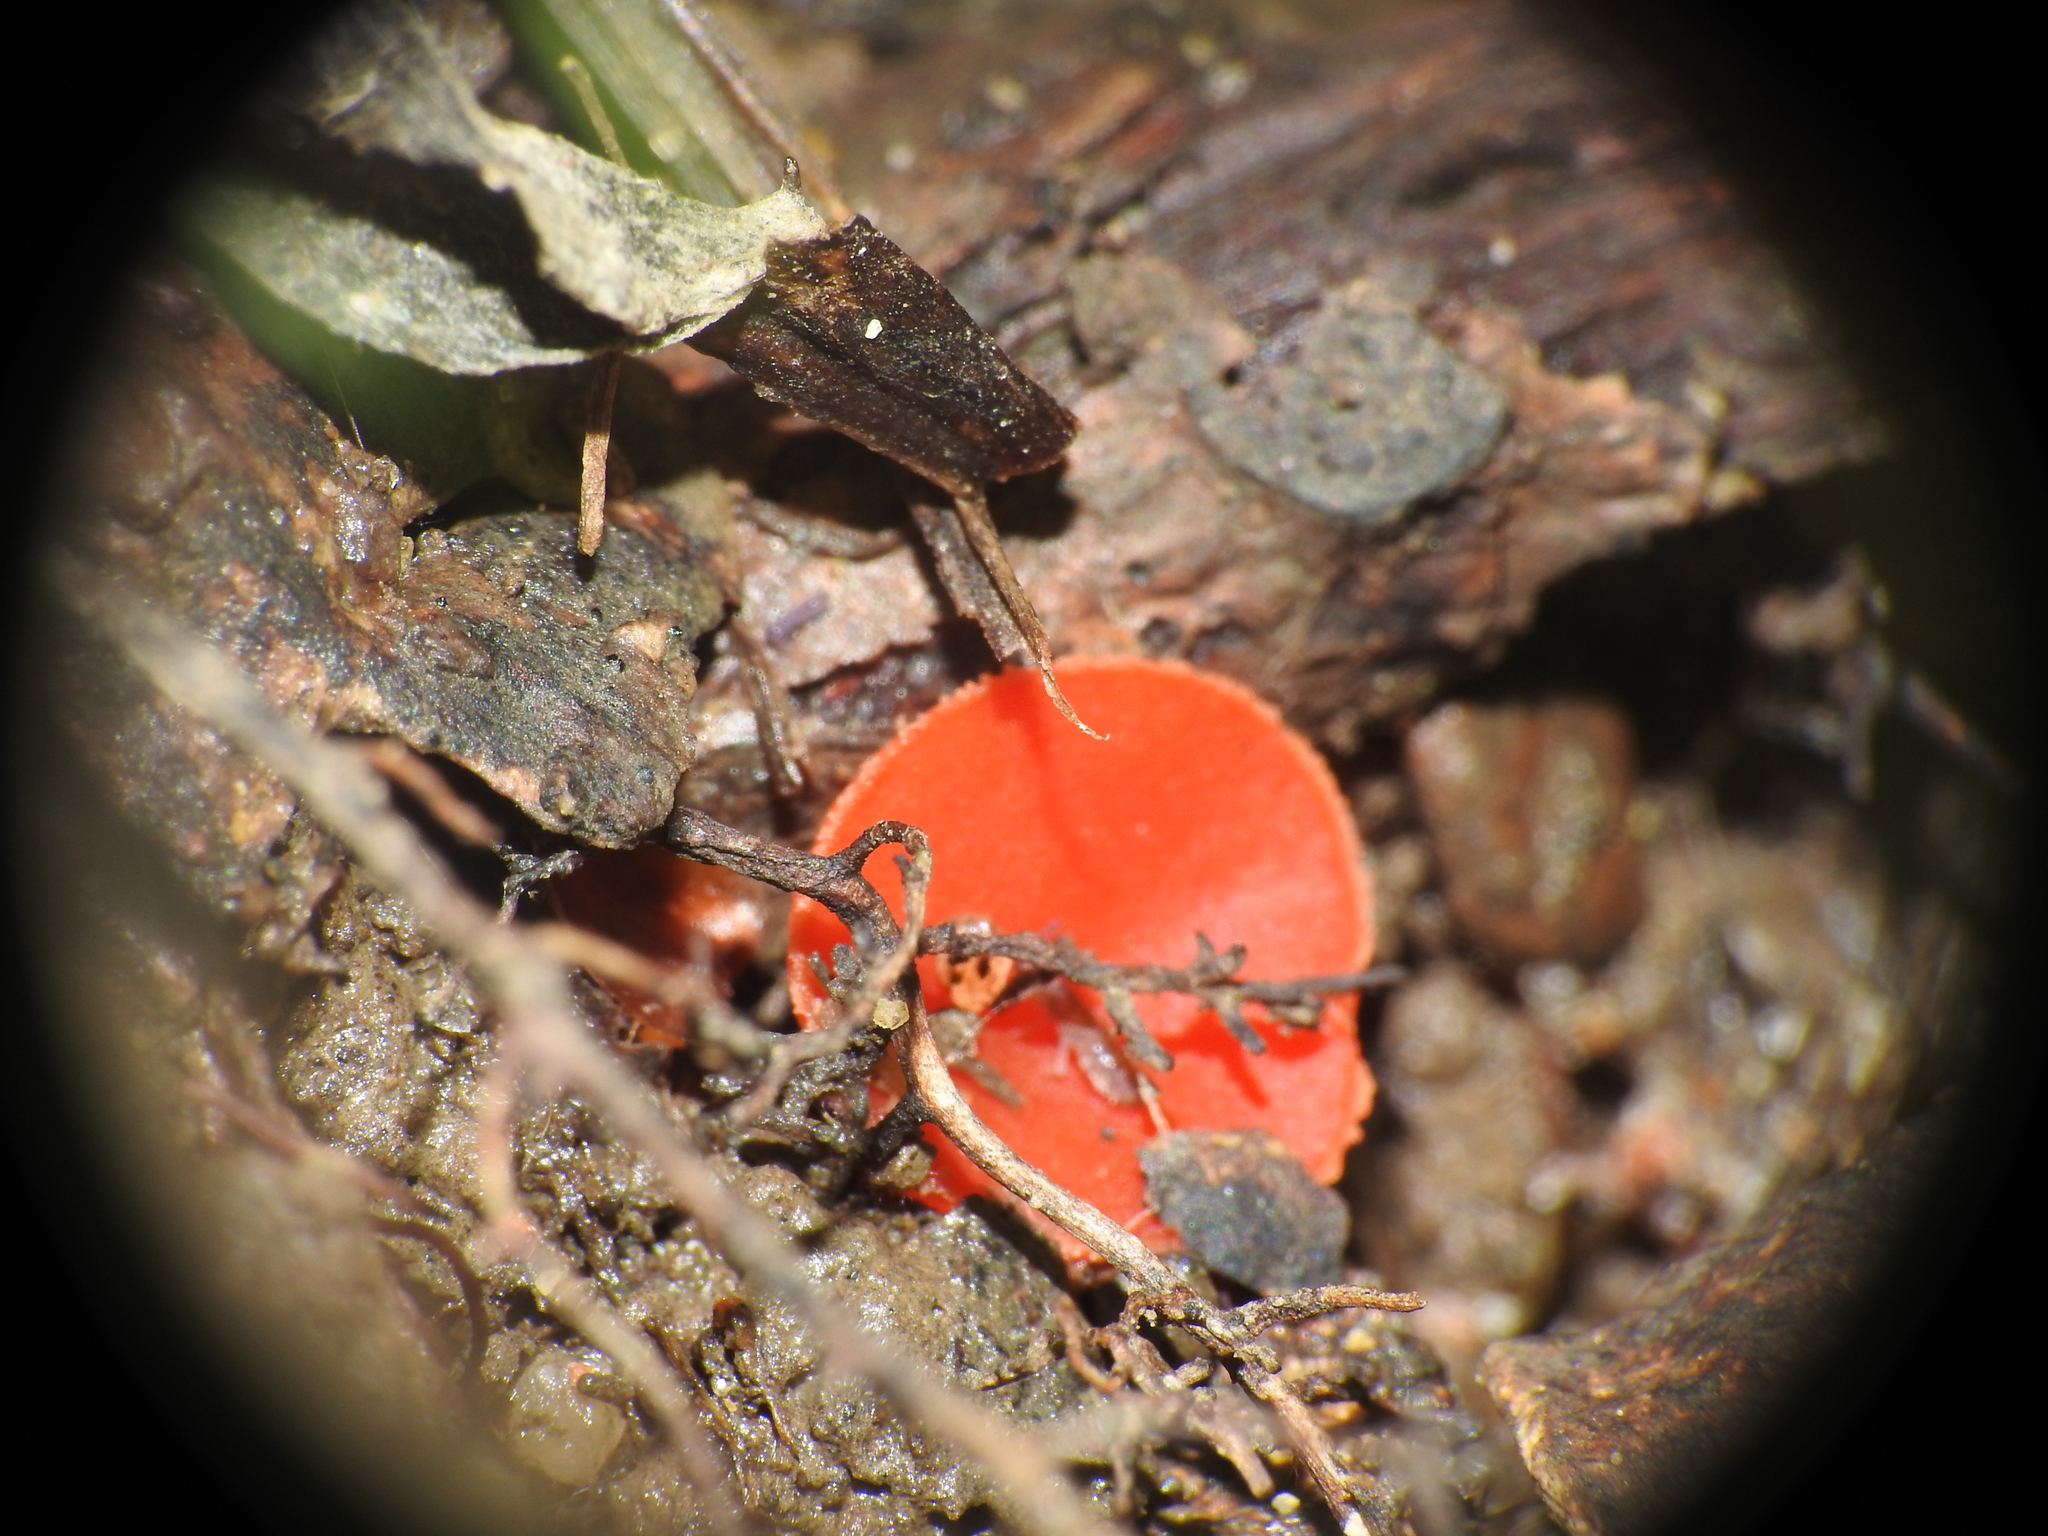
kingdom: Fungi
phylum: Ascomycota
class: Pezizomycetes
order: Pezizales
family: Sarcoscyphaceae
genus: Sarcoscypha
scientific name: Sarcoscypha occidentalis
